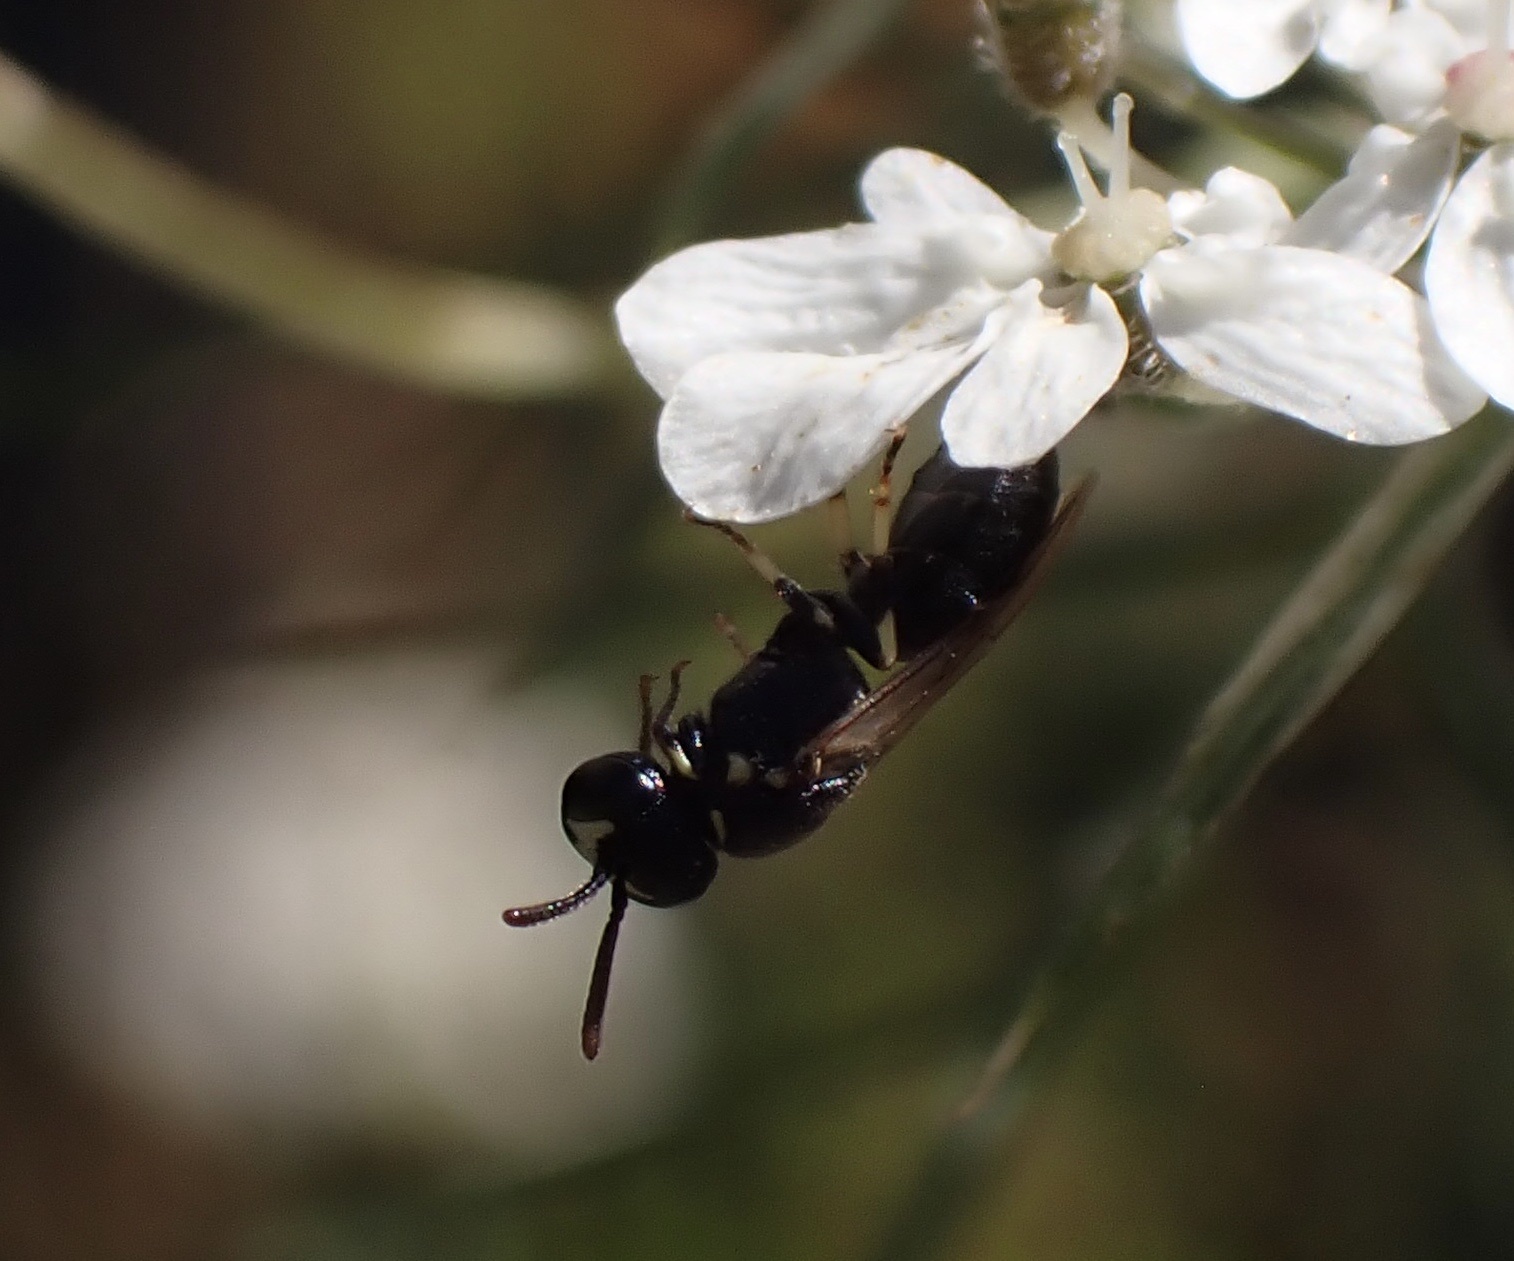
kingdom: Animalia
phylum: Arthropoda
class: Insecta
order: Hymenoptera
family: Colletidae
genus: Hylaeus
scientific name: Hylaeus clypearis
